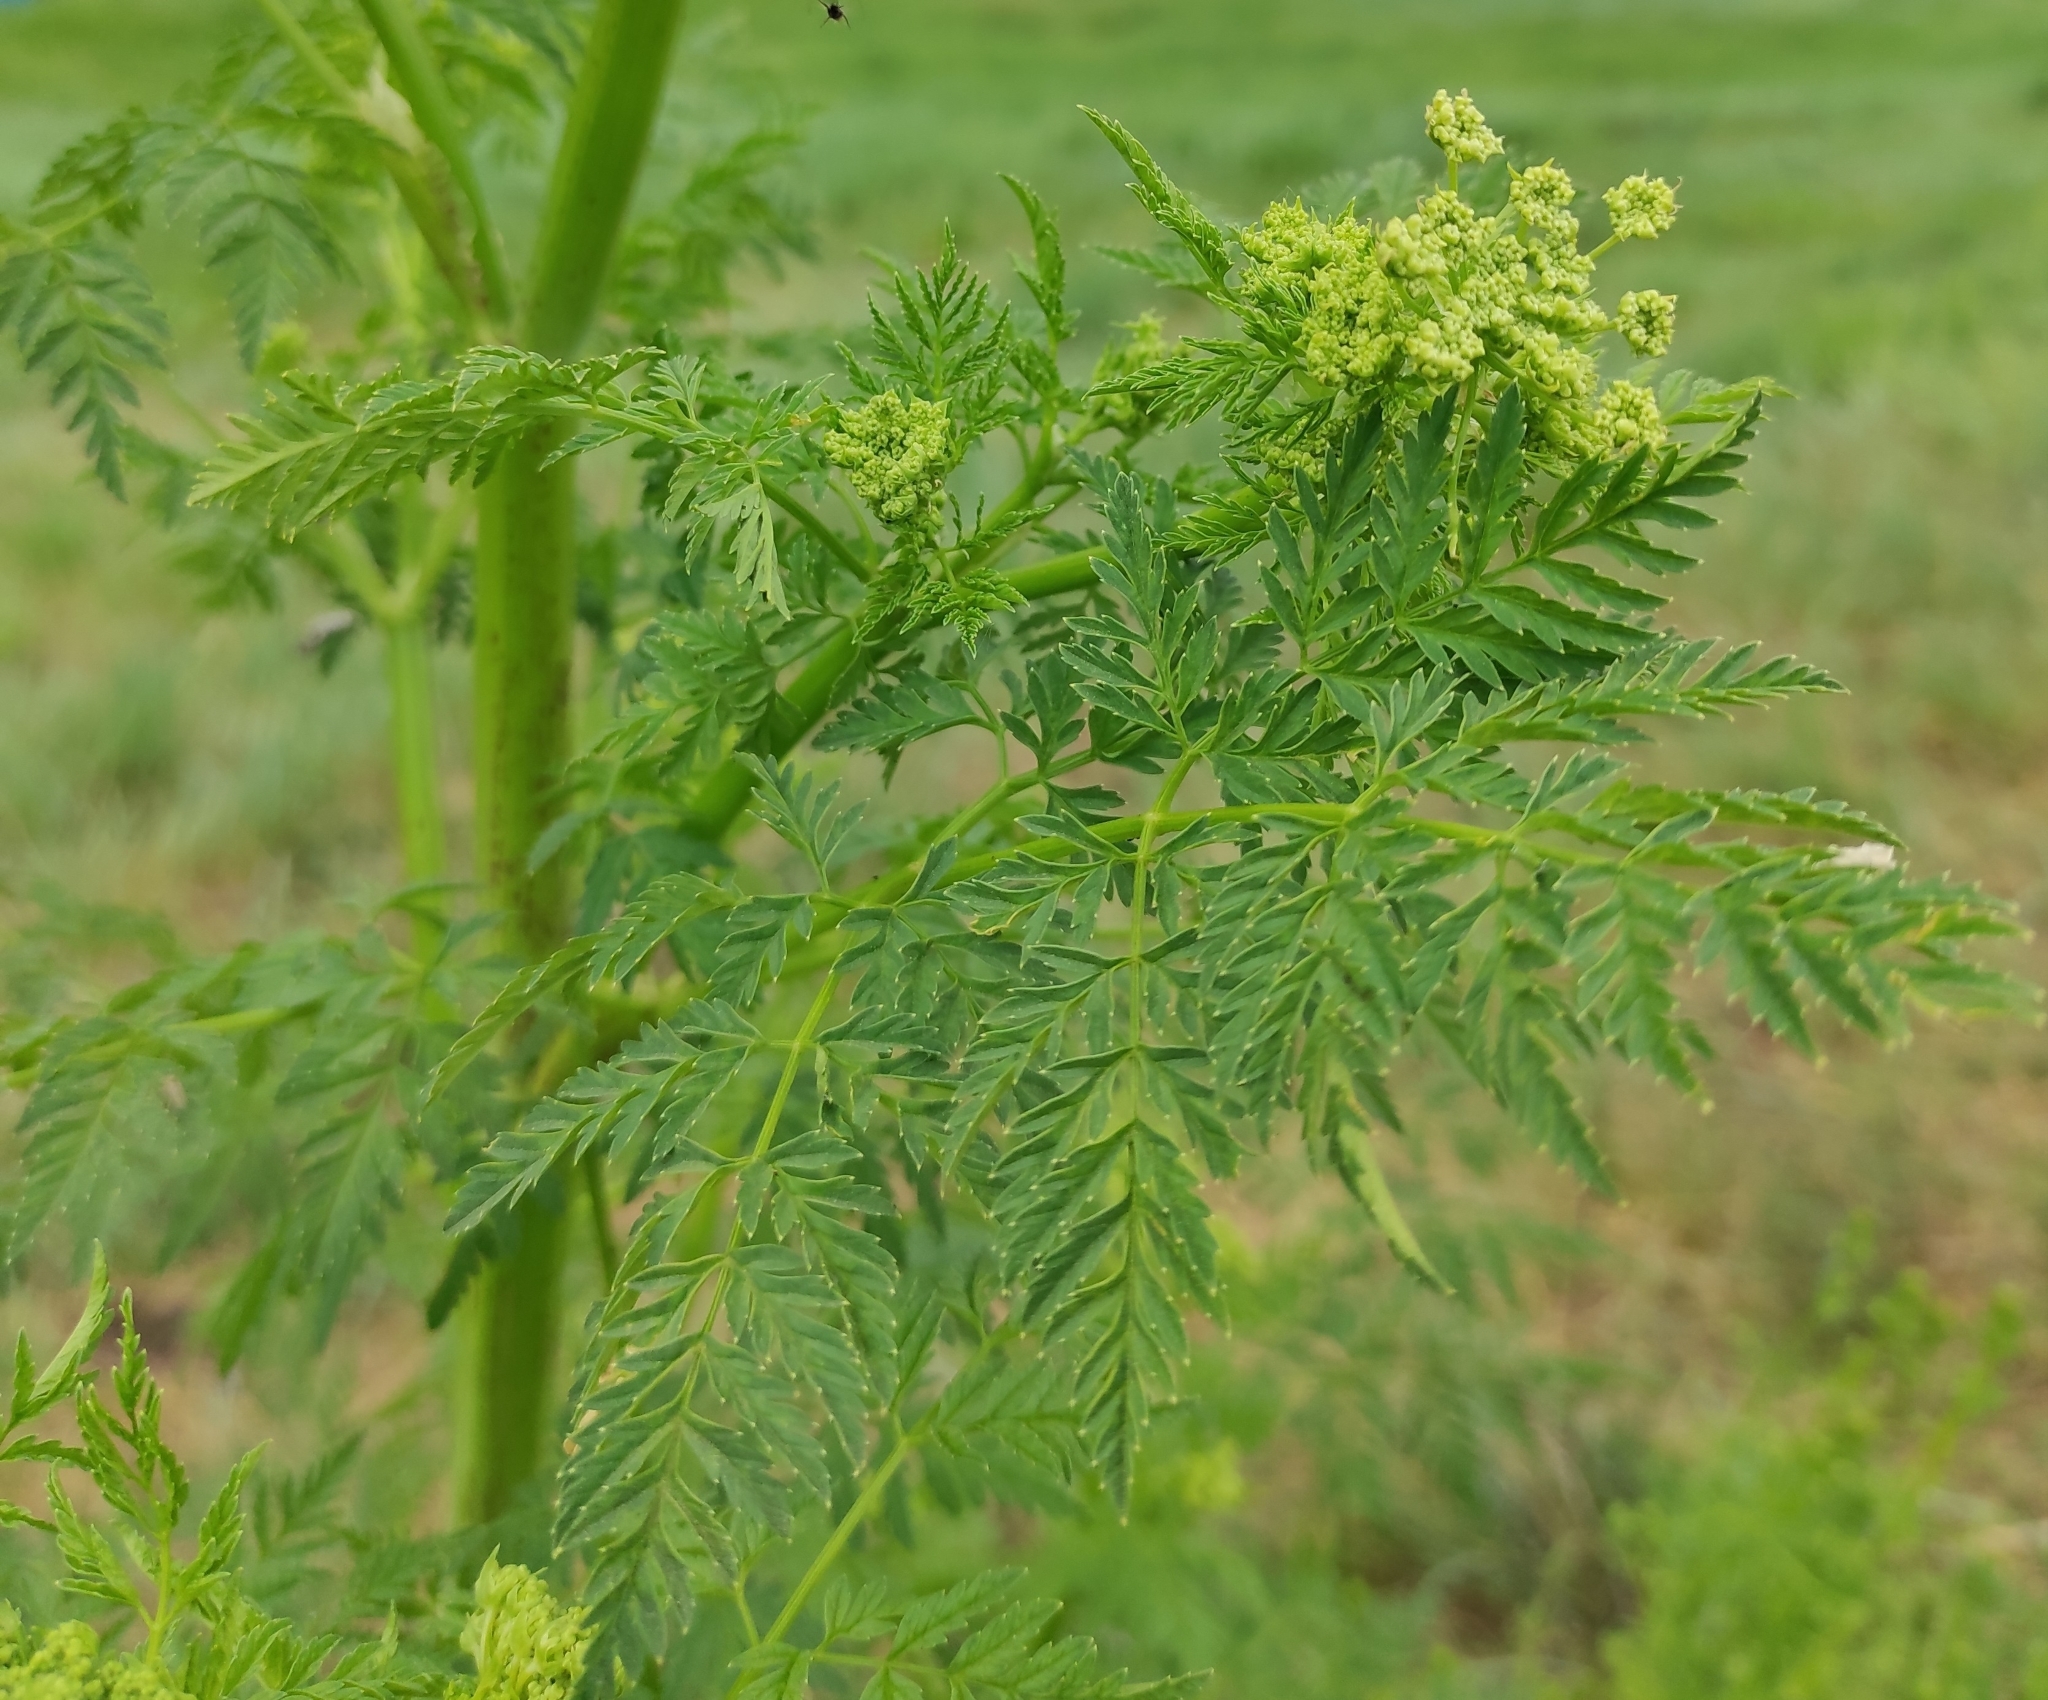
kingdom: Plantae
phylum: Tracheophyta
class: Magnoliopsida
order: Apiales
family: Apiaceae
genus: Conium
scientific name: Conium maculatum
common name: Hemlock
